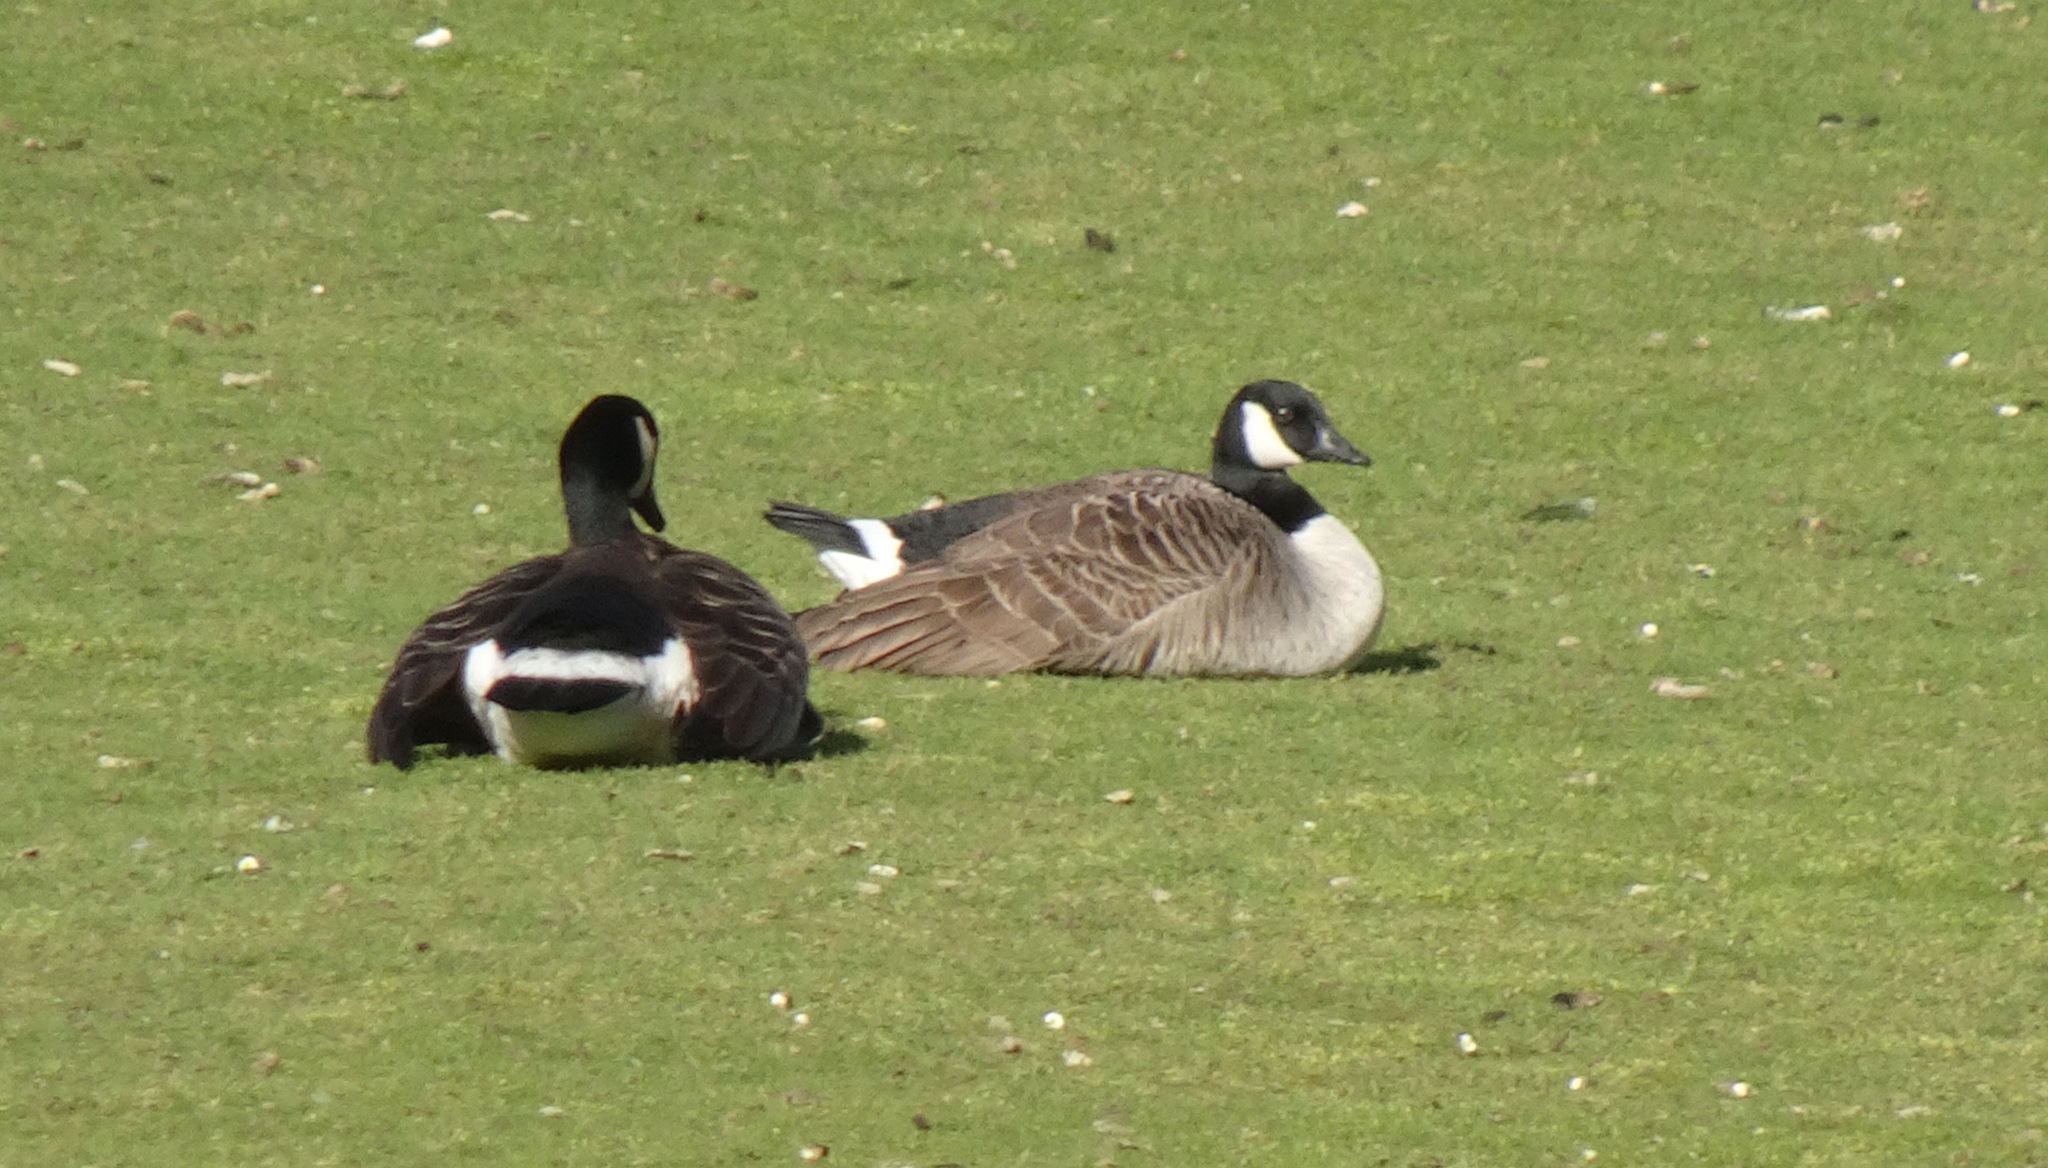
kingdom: Animalia
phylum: Chordata
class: Aves
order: Anseriformes
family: Anatidae
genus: Branta
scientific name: Branta canadensis
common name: Canada goose
